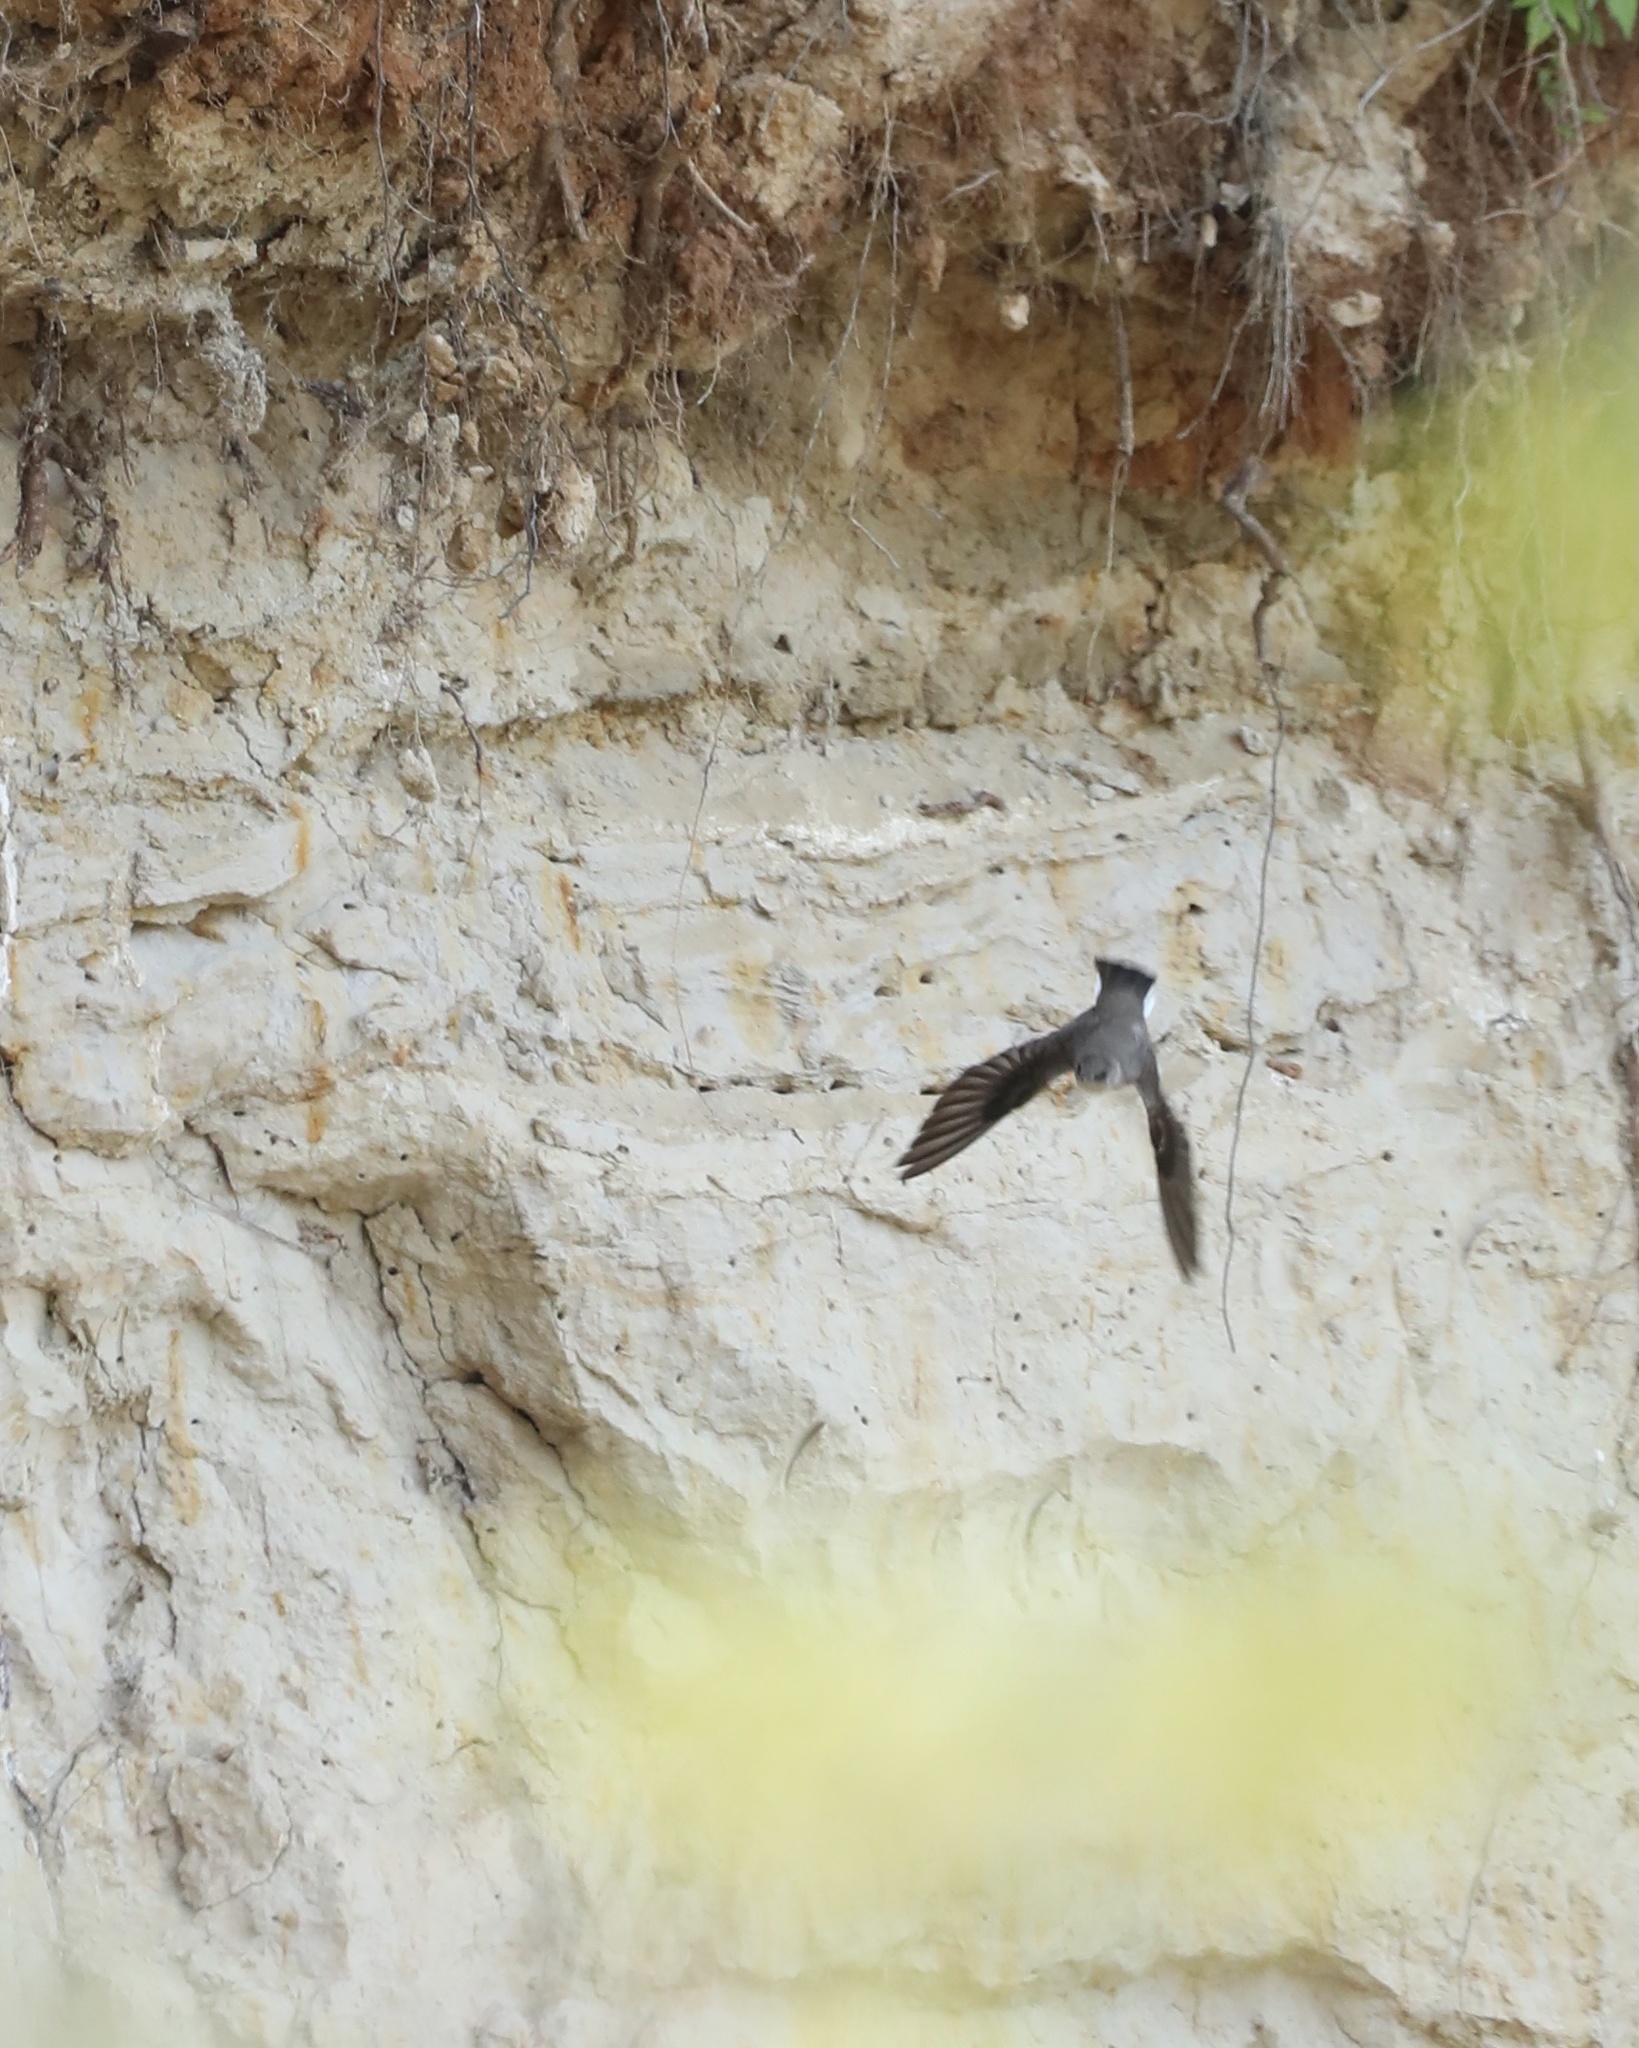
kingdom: Animalia
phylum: Chordata
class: Aves
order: Passeriformes
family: Hirundinidae
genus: Riparia
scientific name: Riparia riparia
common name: Sand martin
